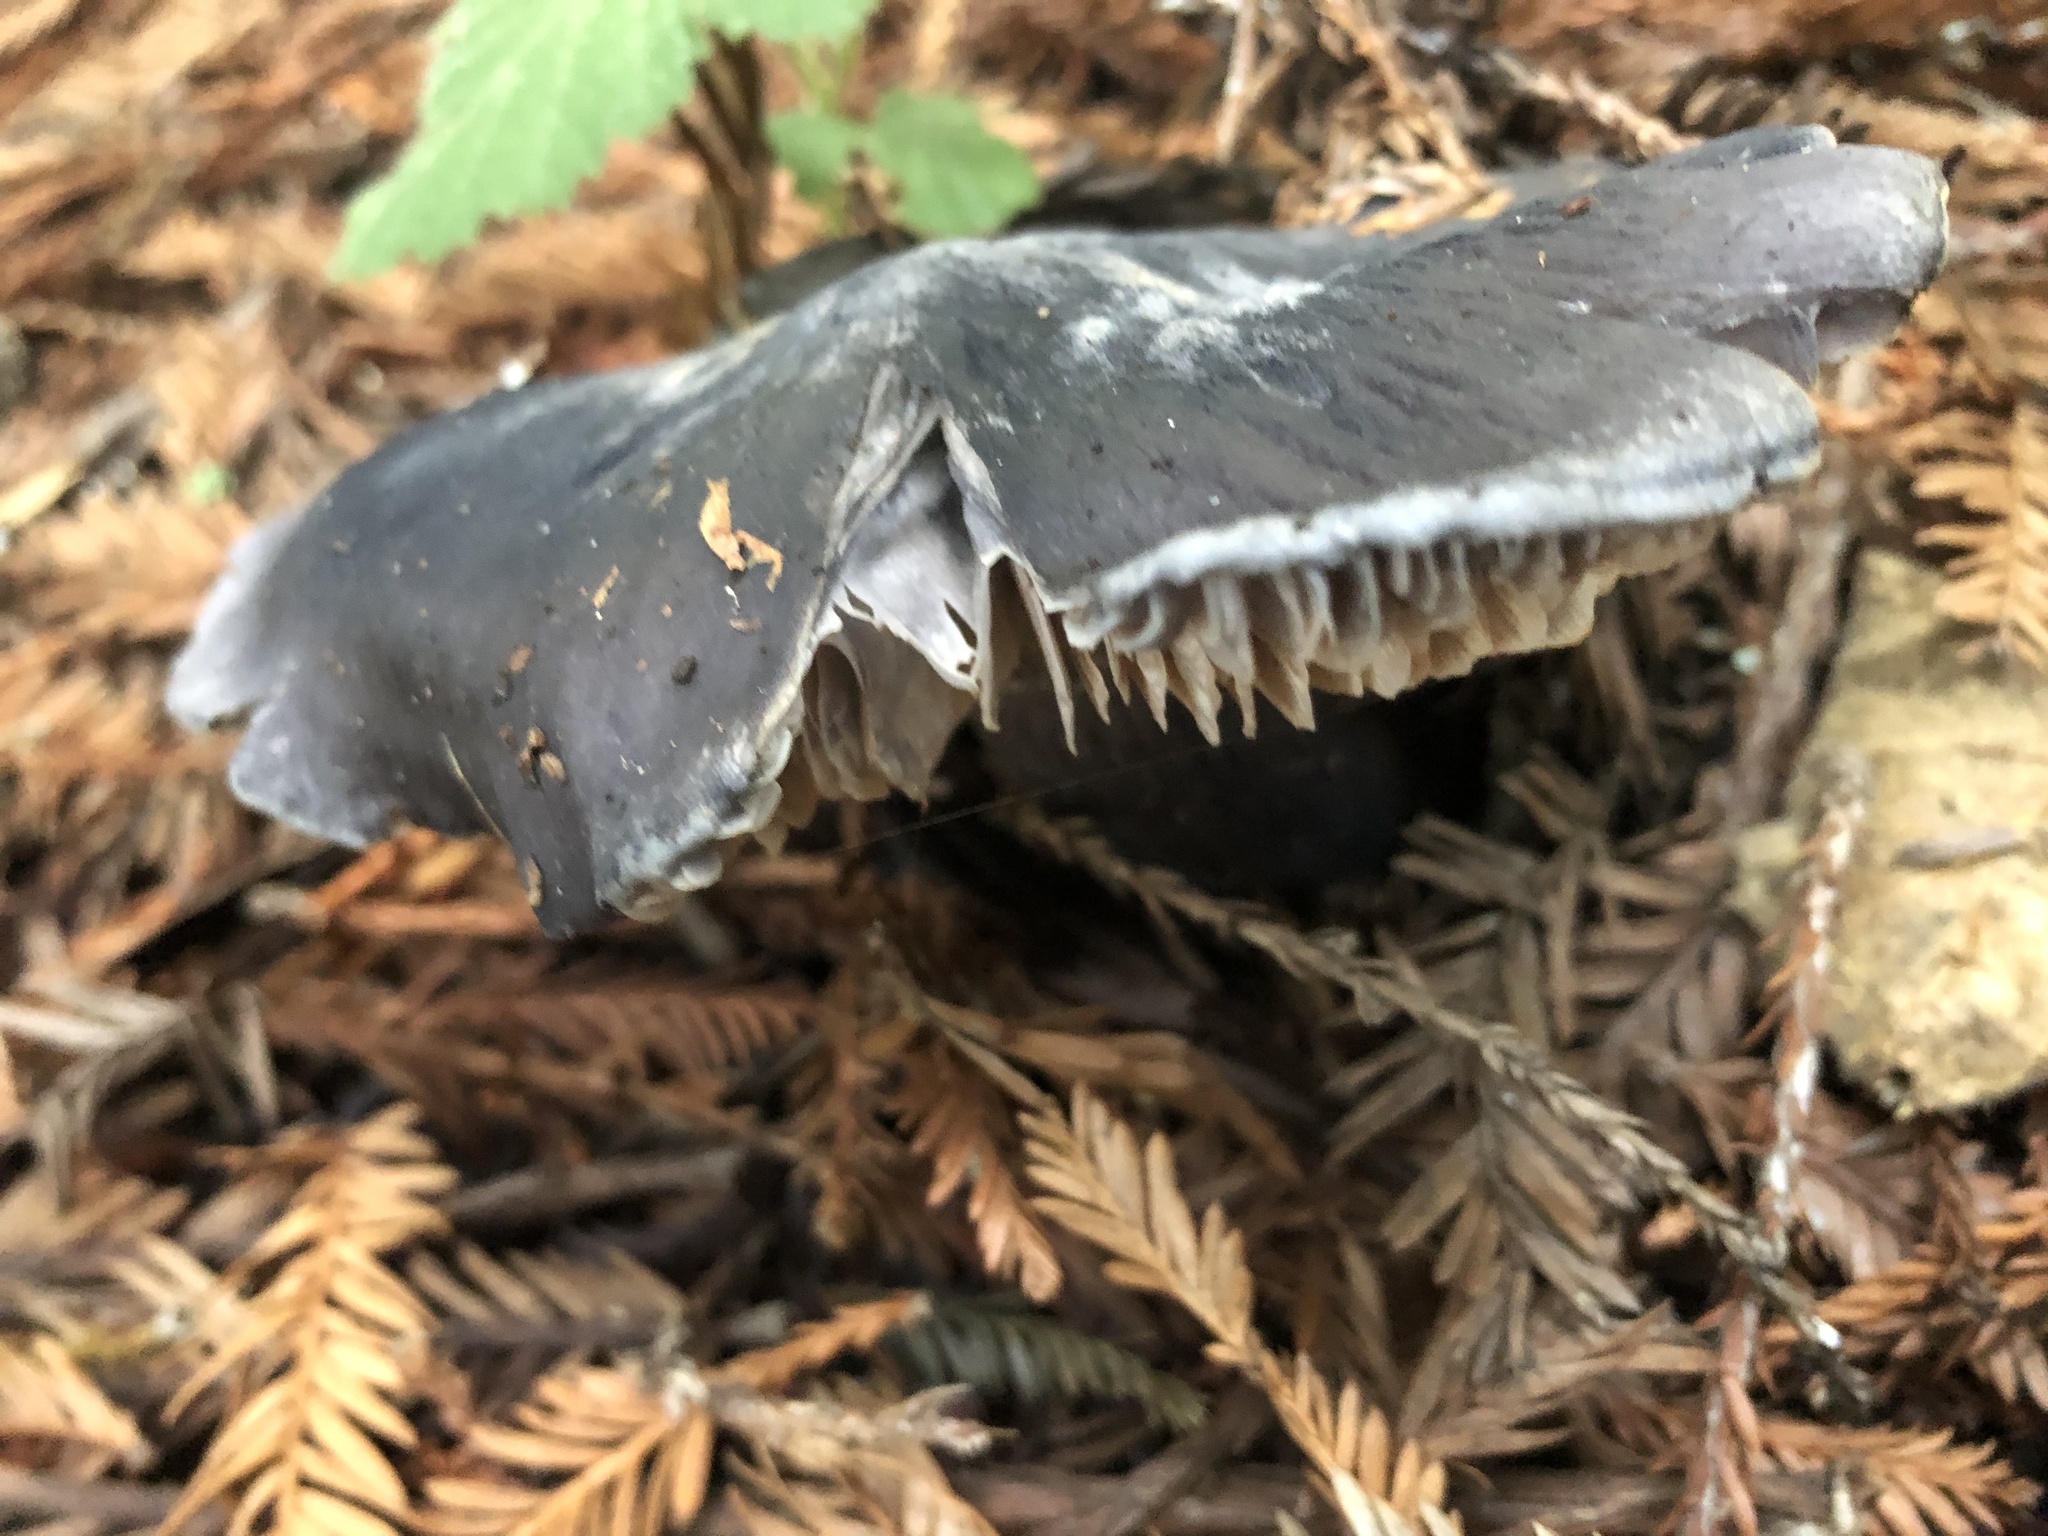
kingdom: Fungi
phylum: Basidiomycota
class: Agaricomycetes
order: Agaricales
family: Entolomataceae
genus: Entoloma
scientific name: Entoloma medianox
